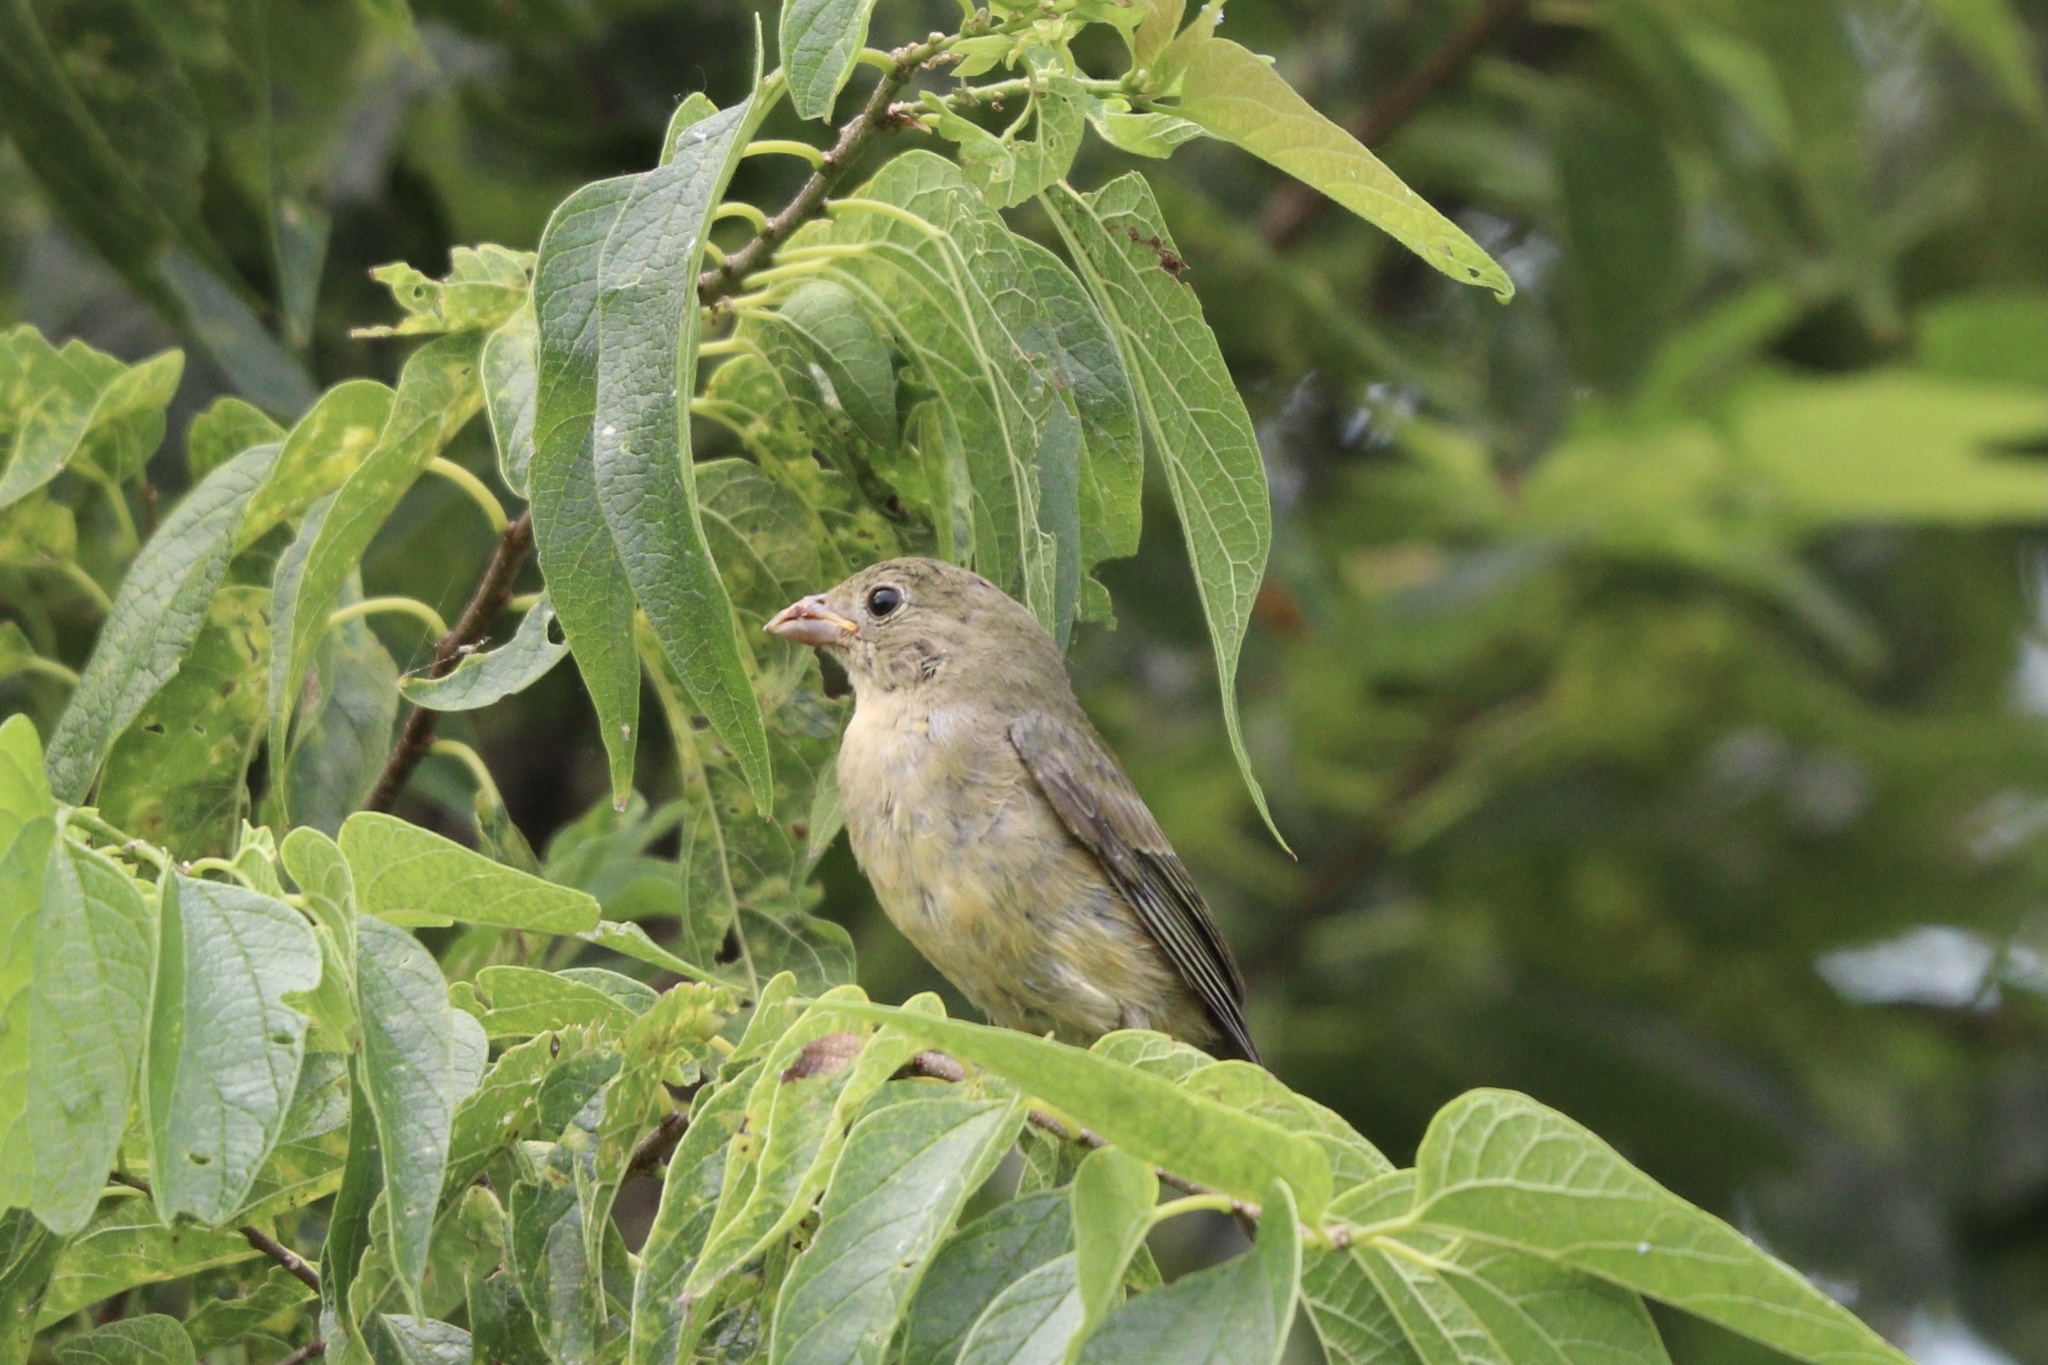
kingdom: Animalia
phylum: Chordata
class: Aves
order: Passeriformes
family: Cardinalidae
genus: Passerina
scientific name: Passerina ciris
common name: Painted bunting
